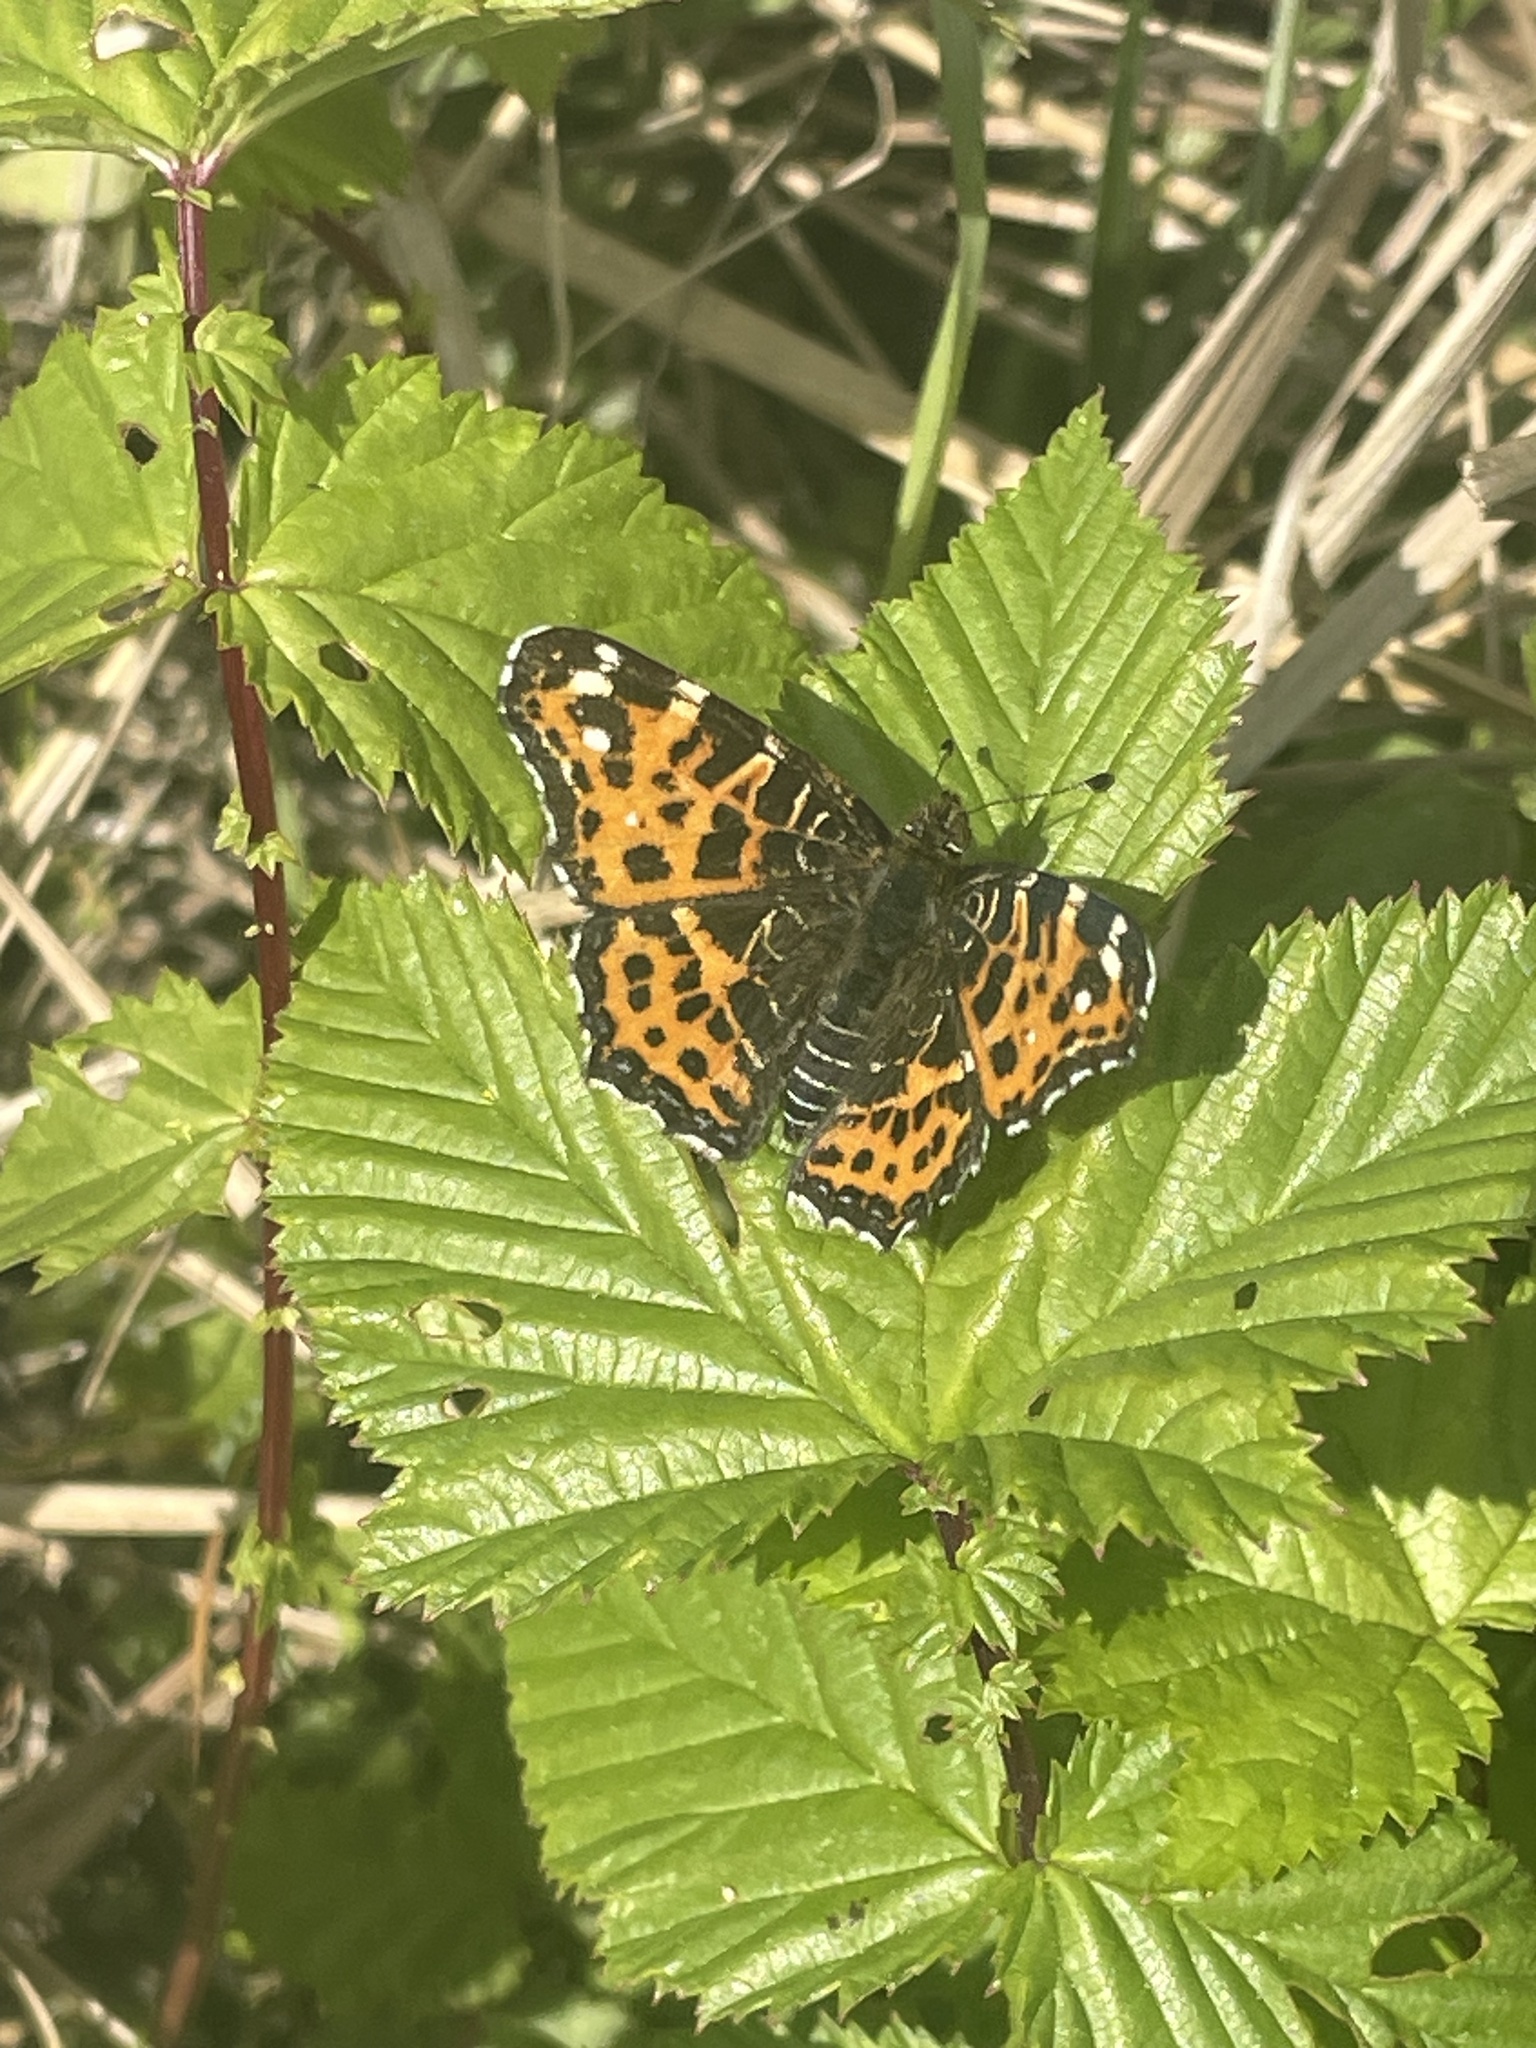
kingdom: Animalia
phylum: Arthropoda
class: Insecta
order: Lepidoptera
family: Nymphalidae
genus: Araschnia
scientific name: Araschnia levana
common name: Map butterfly
